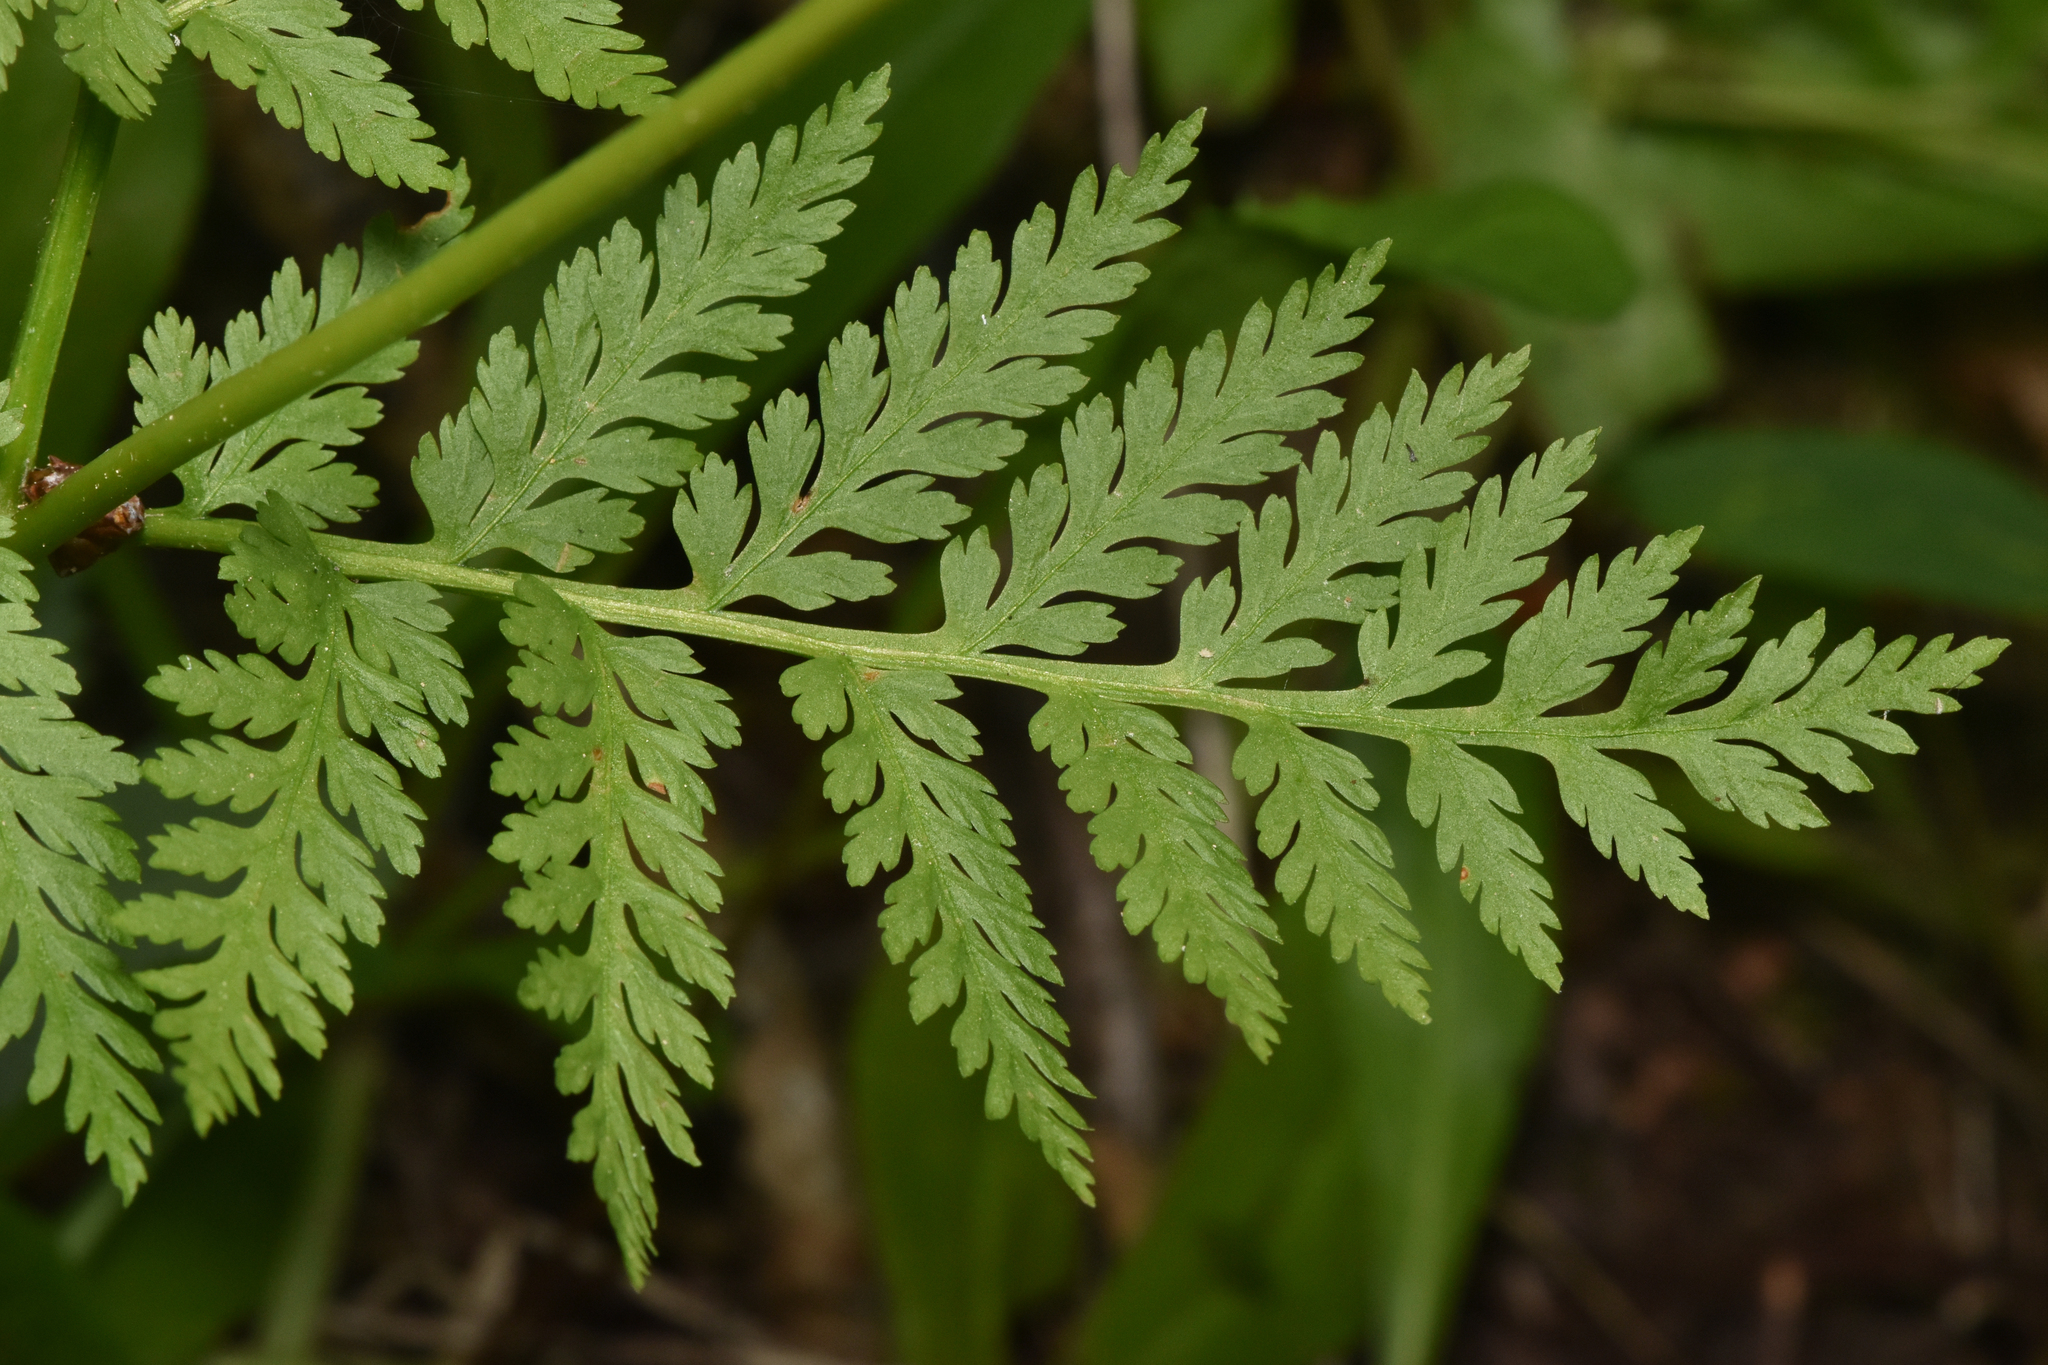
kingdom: Plantae
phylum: Tracheophyta
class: Polypodiopsida
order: Ophioglossales
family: Ophioglossaceae
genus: Botrypus
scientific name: Botrypus virginianus
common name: Common grapefern
